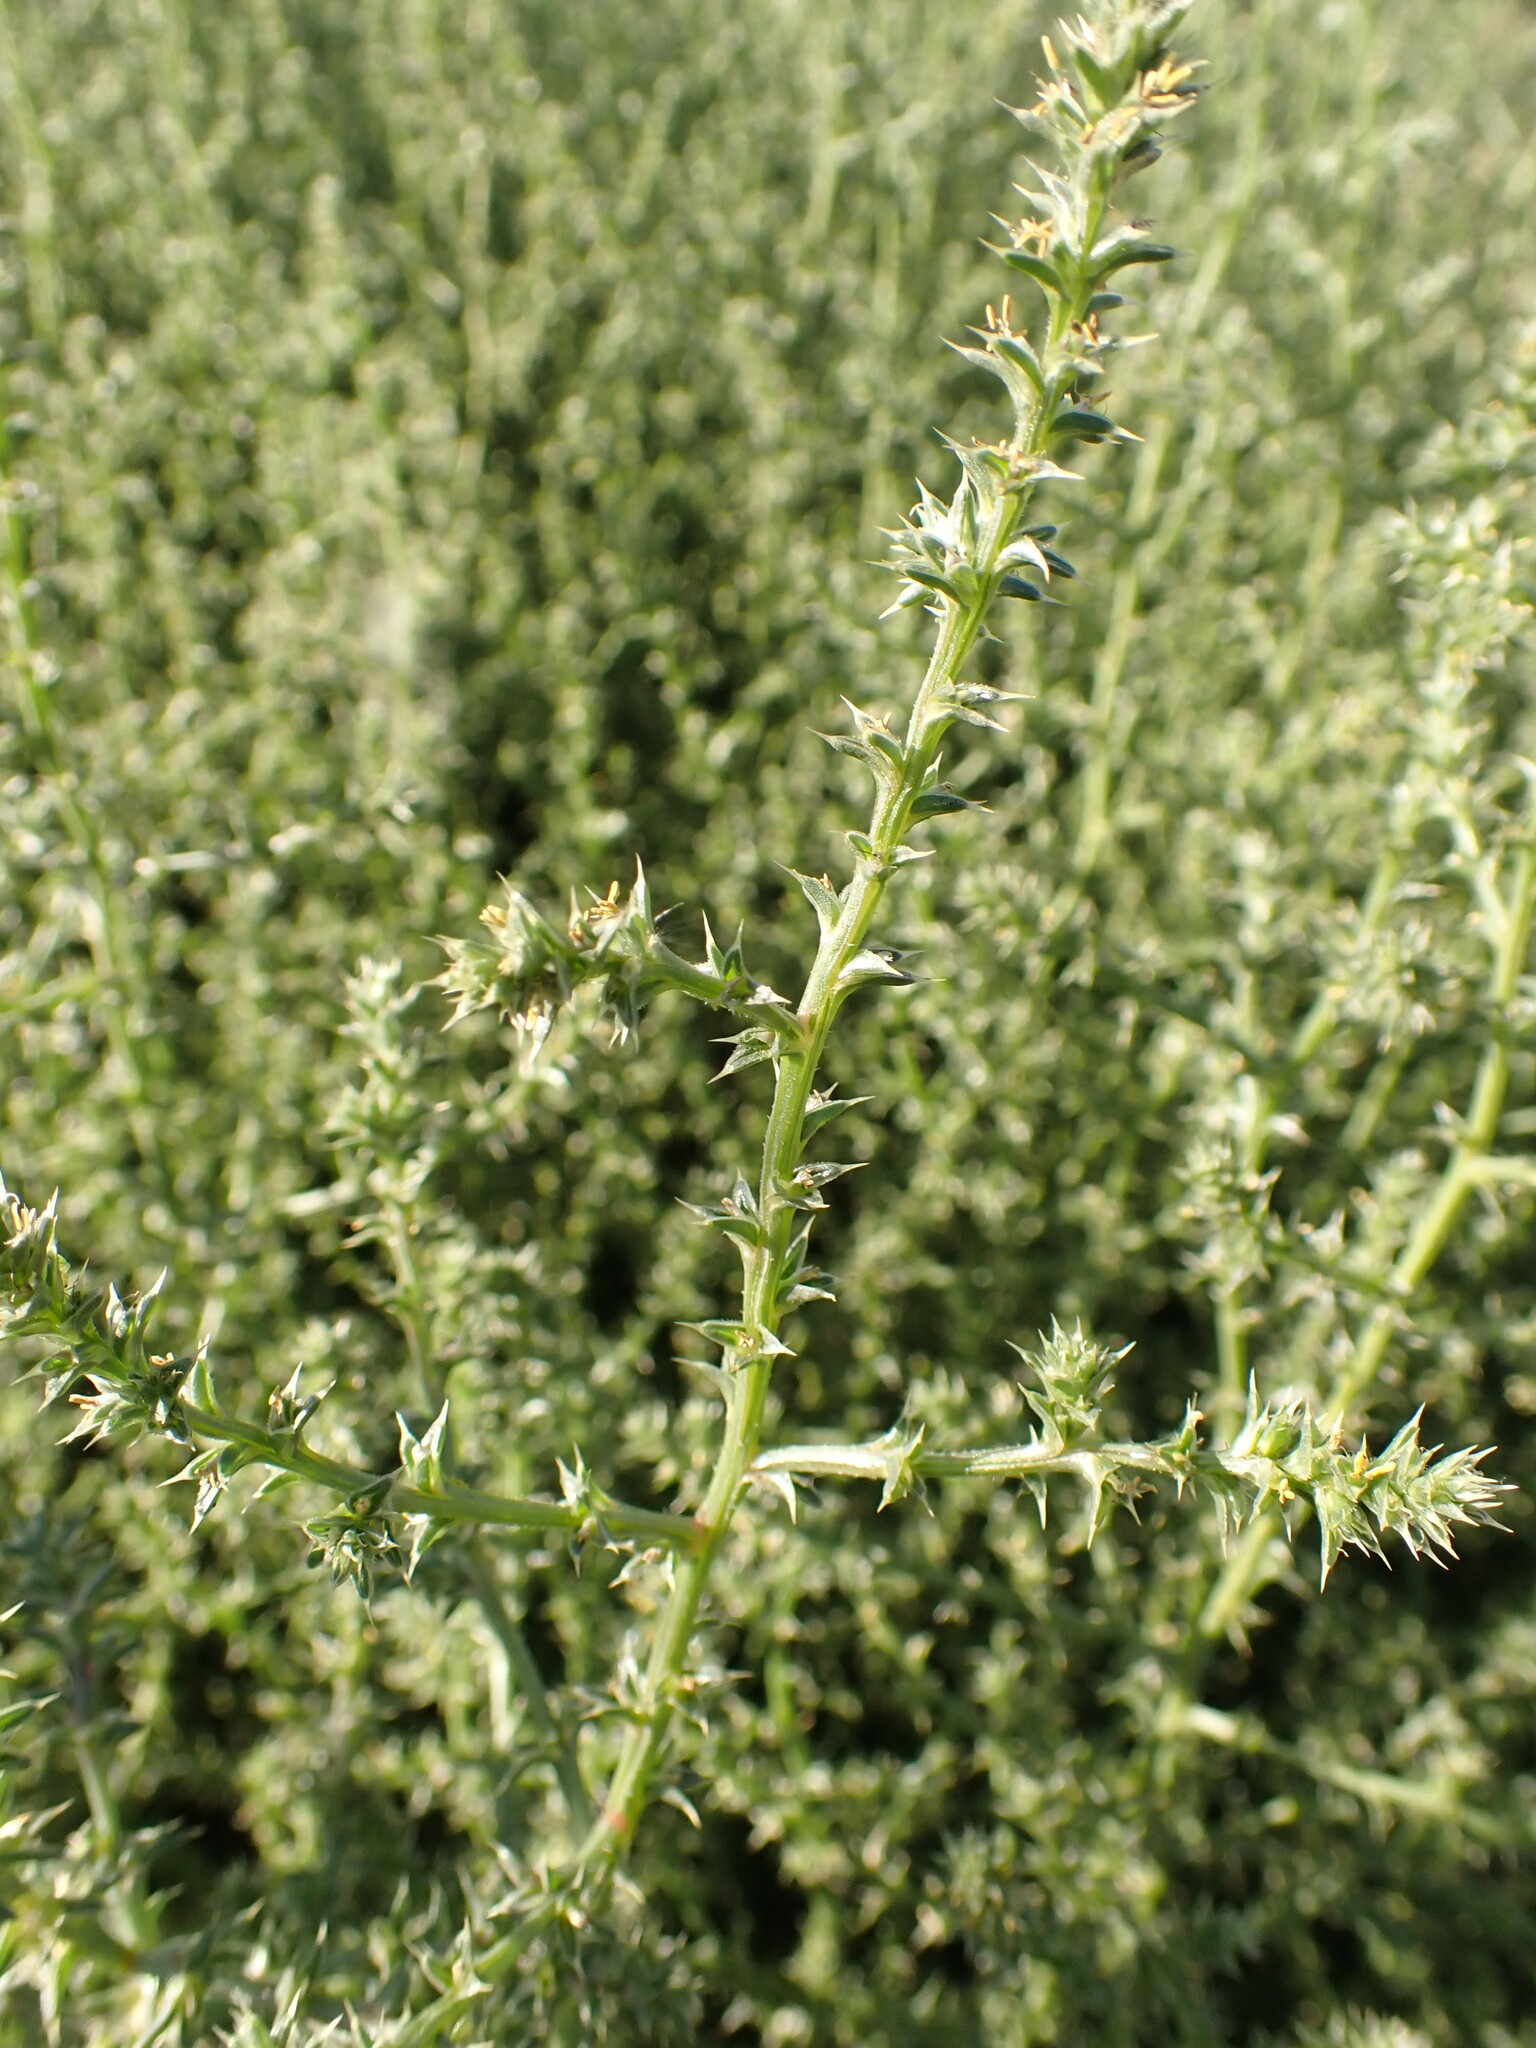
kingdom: Plantae
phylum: Tracheophyta
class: Magnoliopsida
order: Caryophyllales
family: Amaranthaceae
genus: Salsola
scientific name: Salsola tragus
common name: Prickly russian thistle
